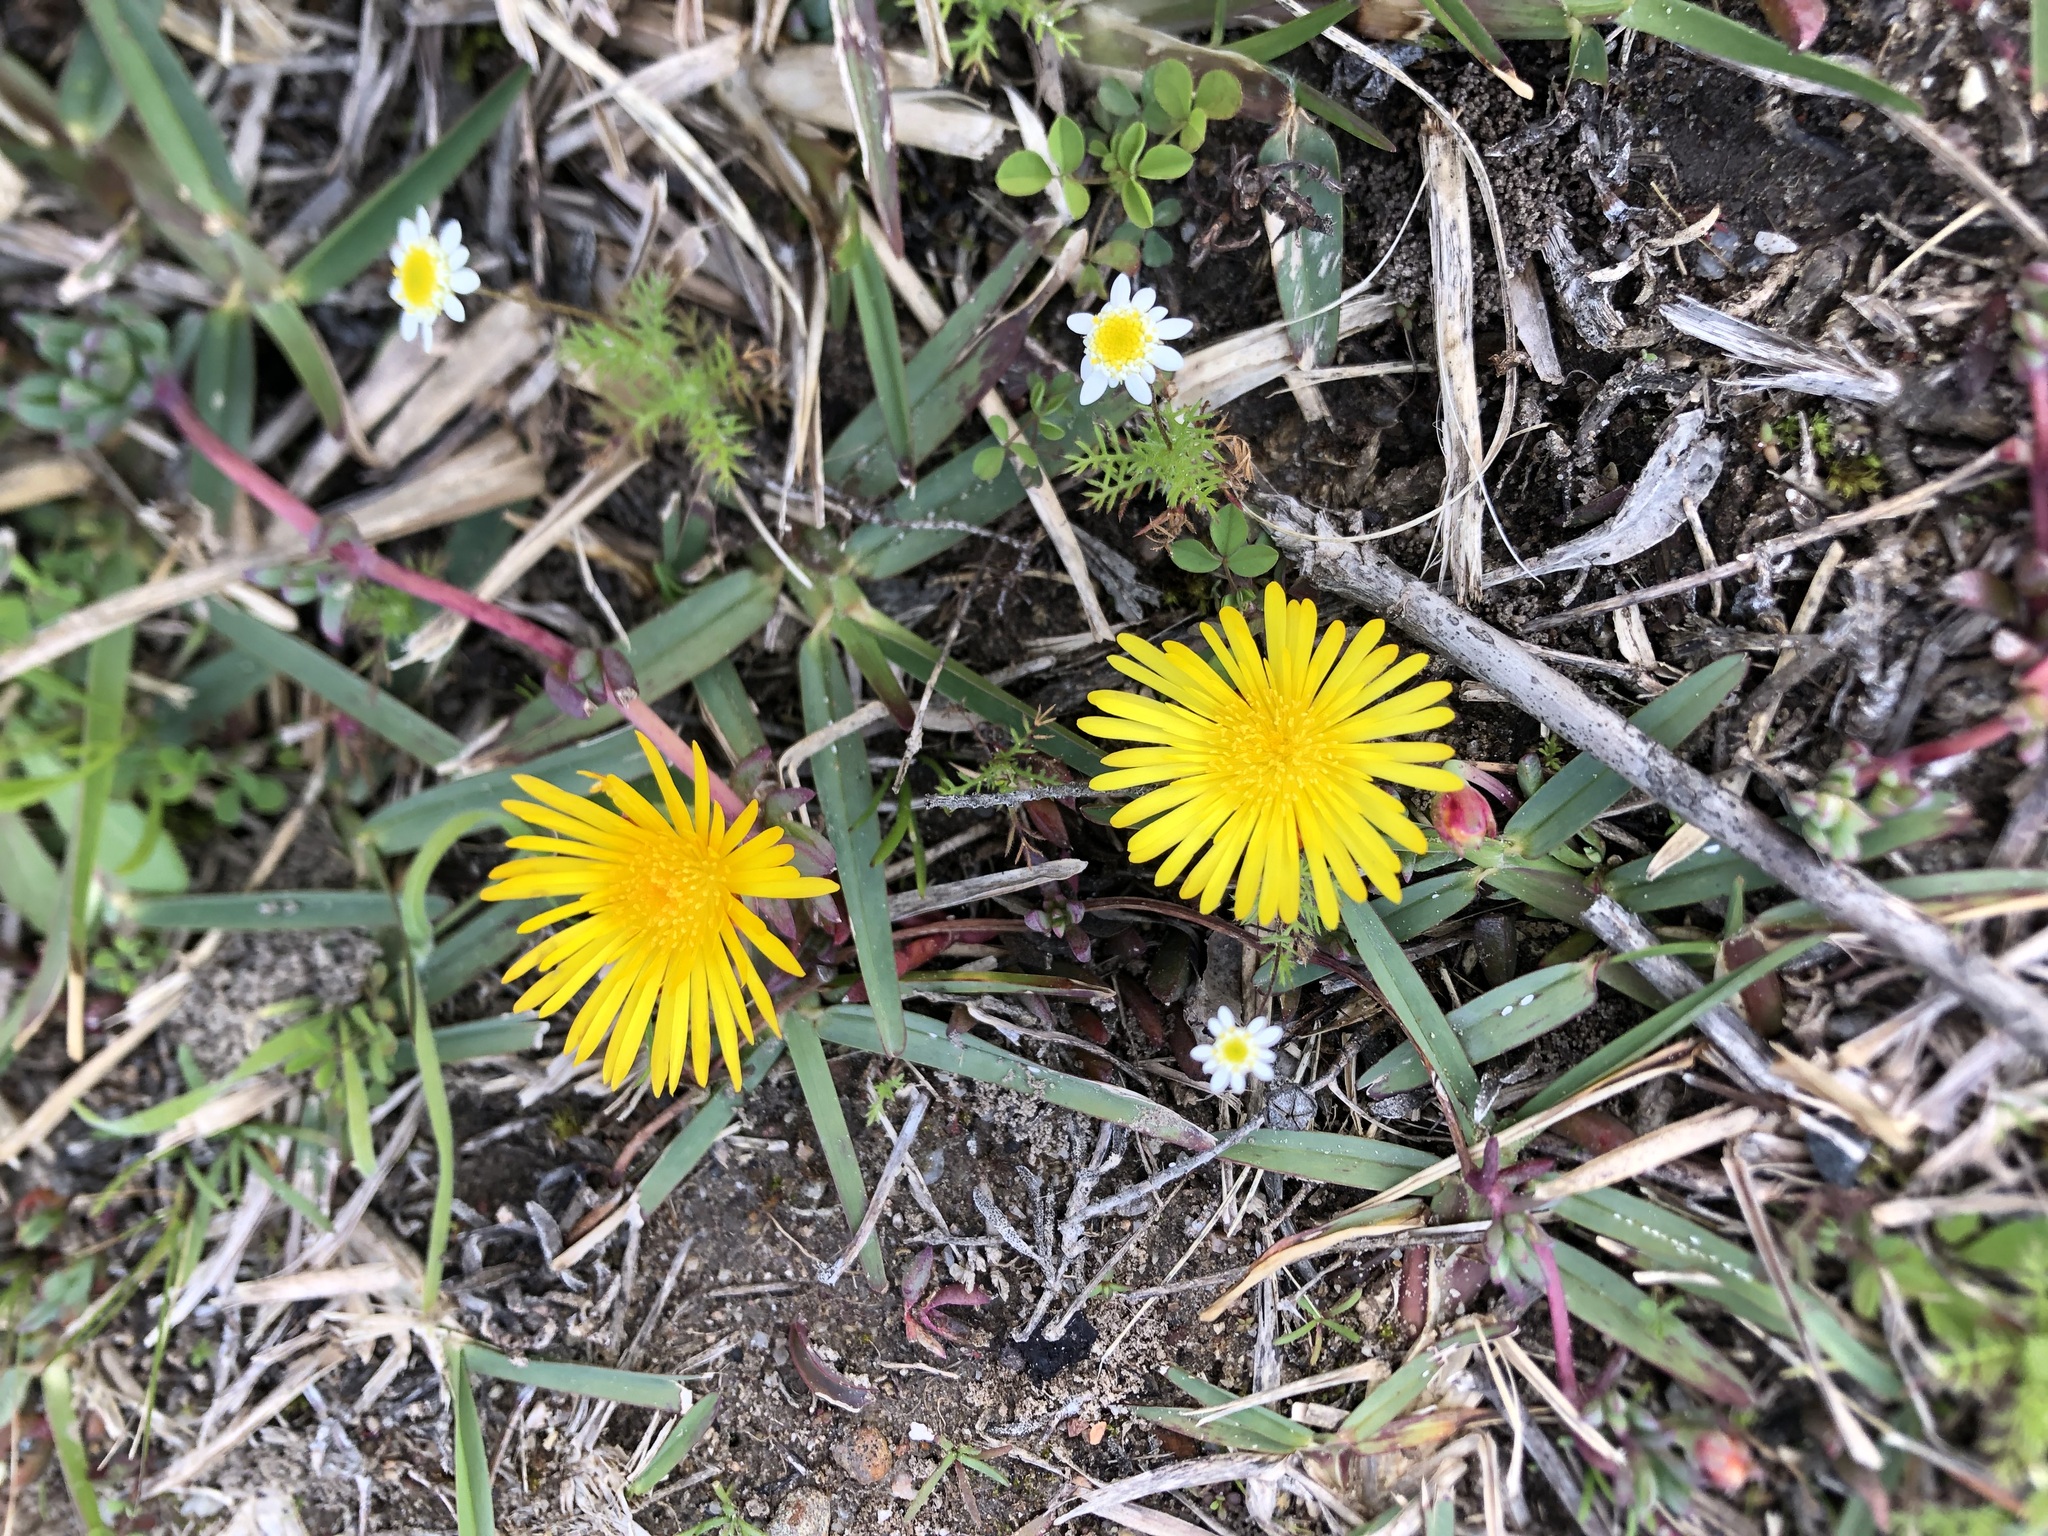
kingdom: Plantae
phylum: Tracheophyta
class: Magnoliopsida
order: Caryophyllales
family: Aizoaceae
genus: Lampranthus
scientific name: Lampranthus reptans
